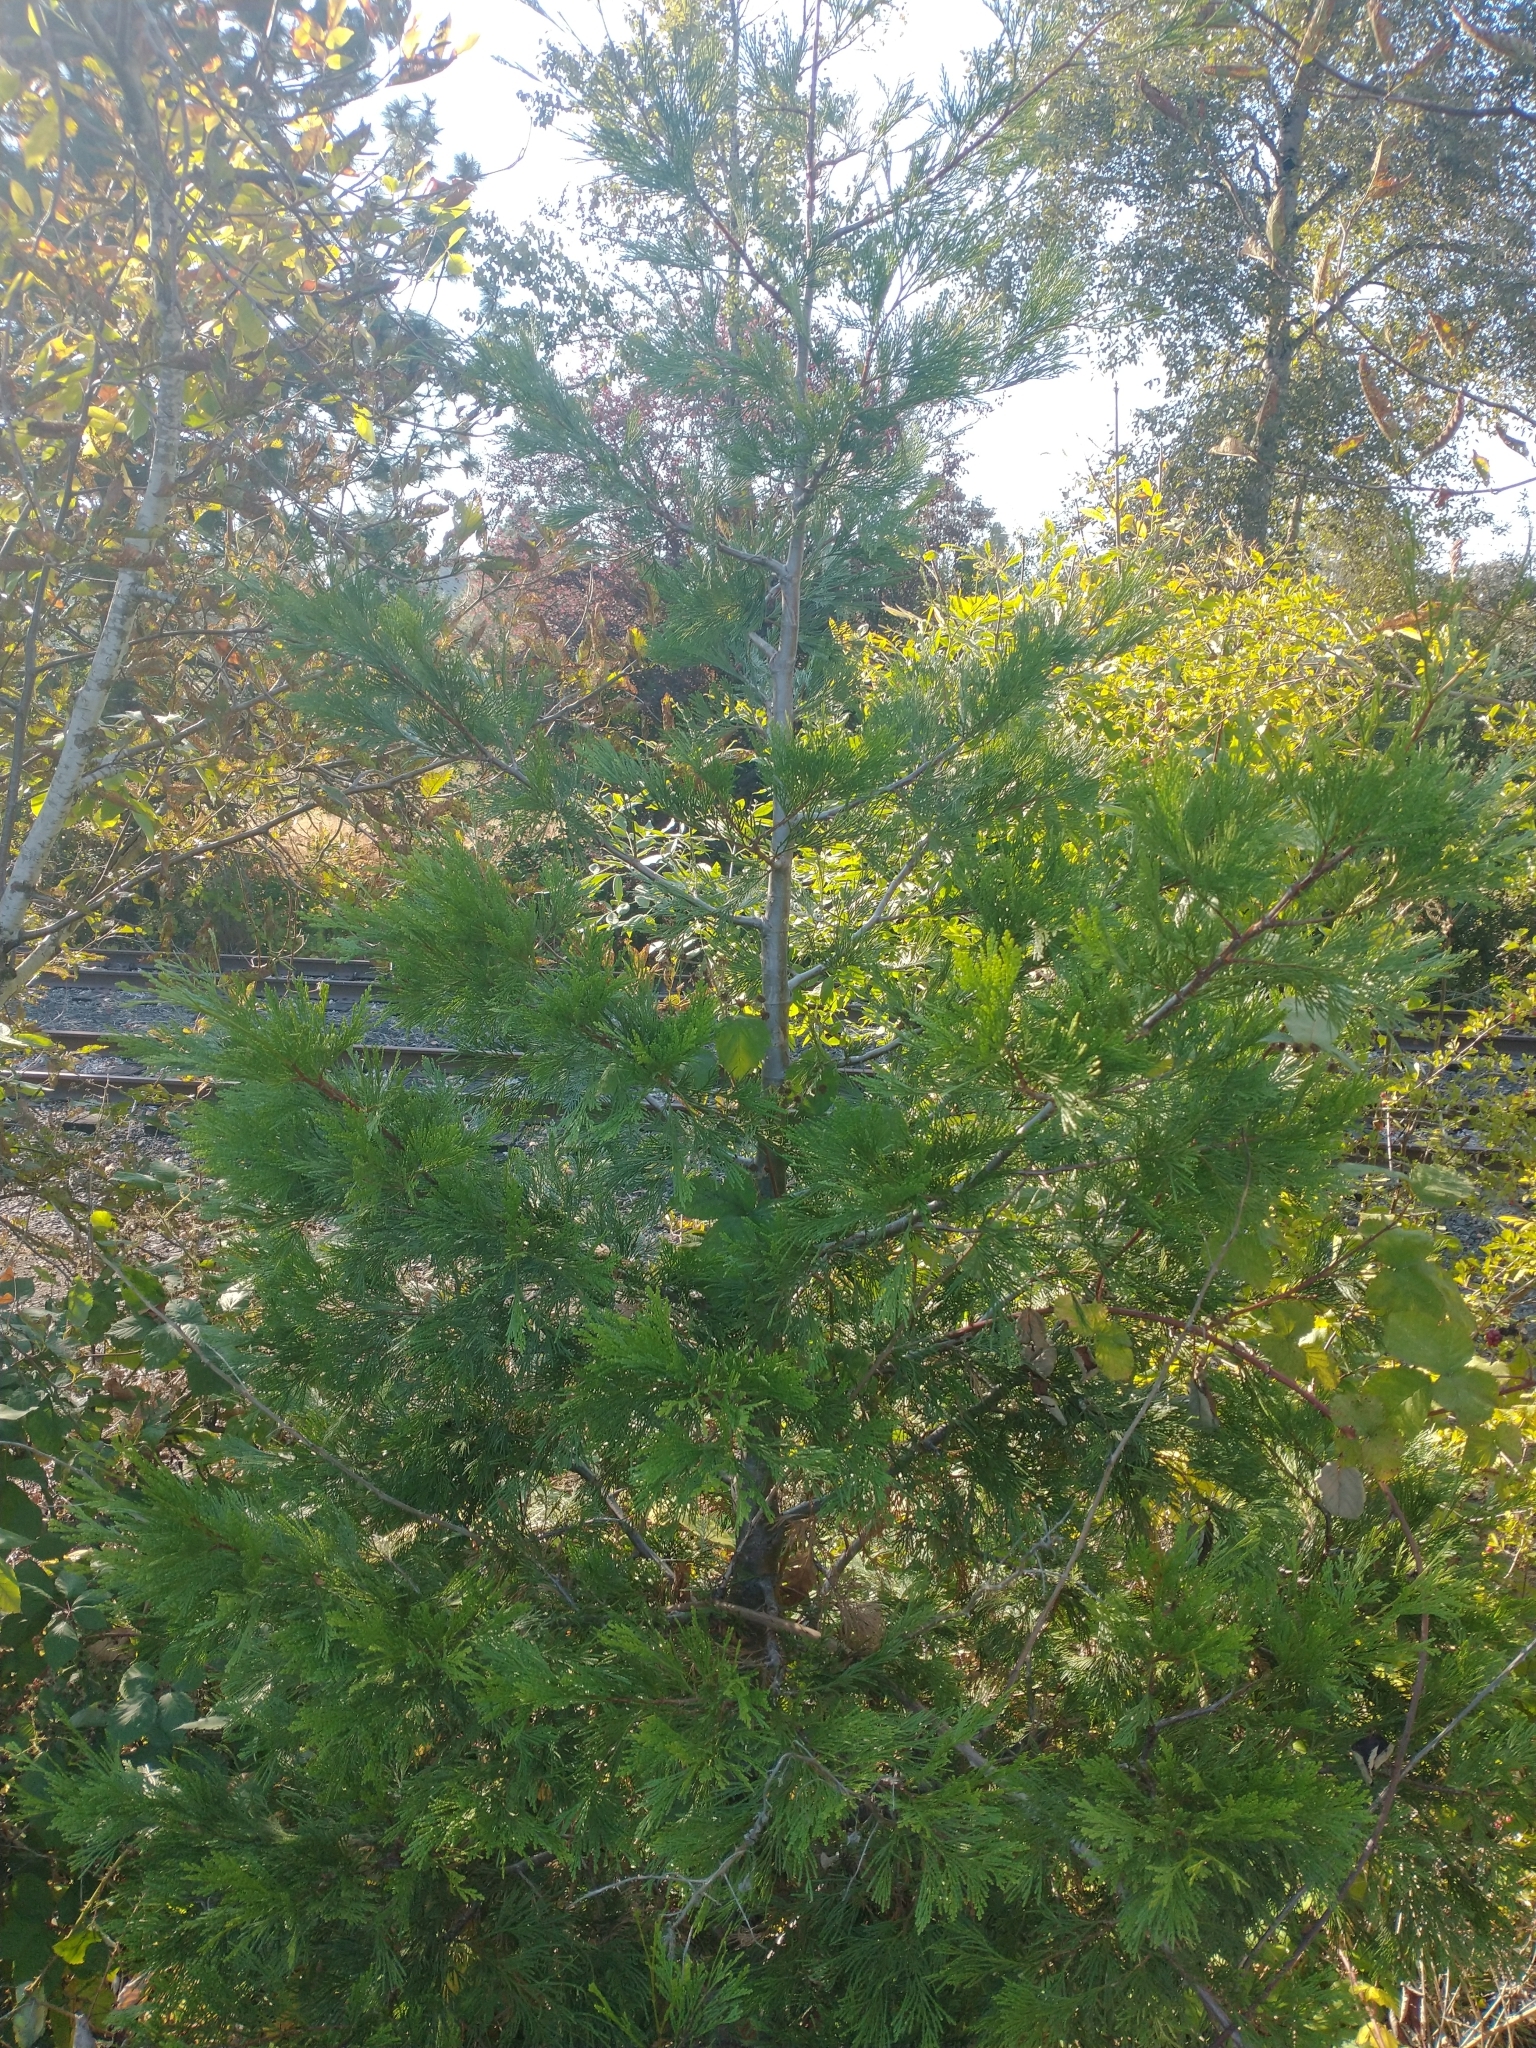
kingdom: Plantae
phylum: Tracheophyta
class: Pinopsida
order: Pinales
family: Cupressaceae
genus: Calocedrus
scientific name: Calocedrus decurrens
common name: Californian incense-cedar
